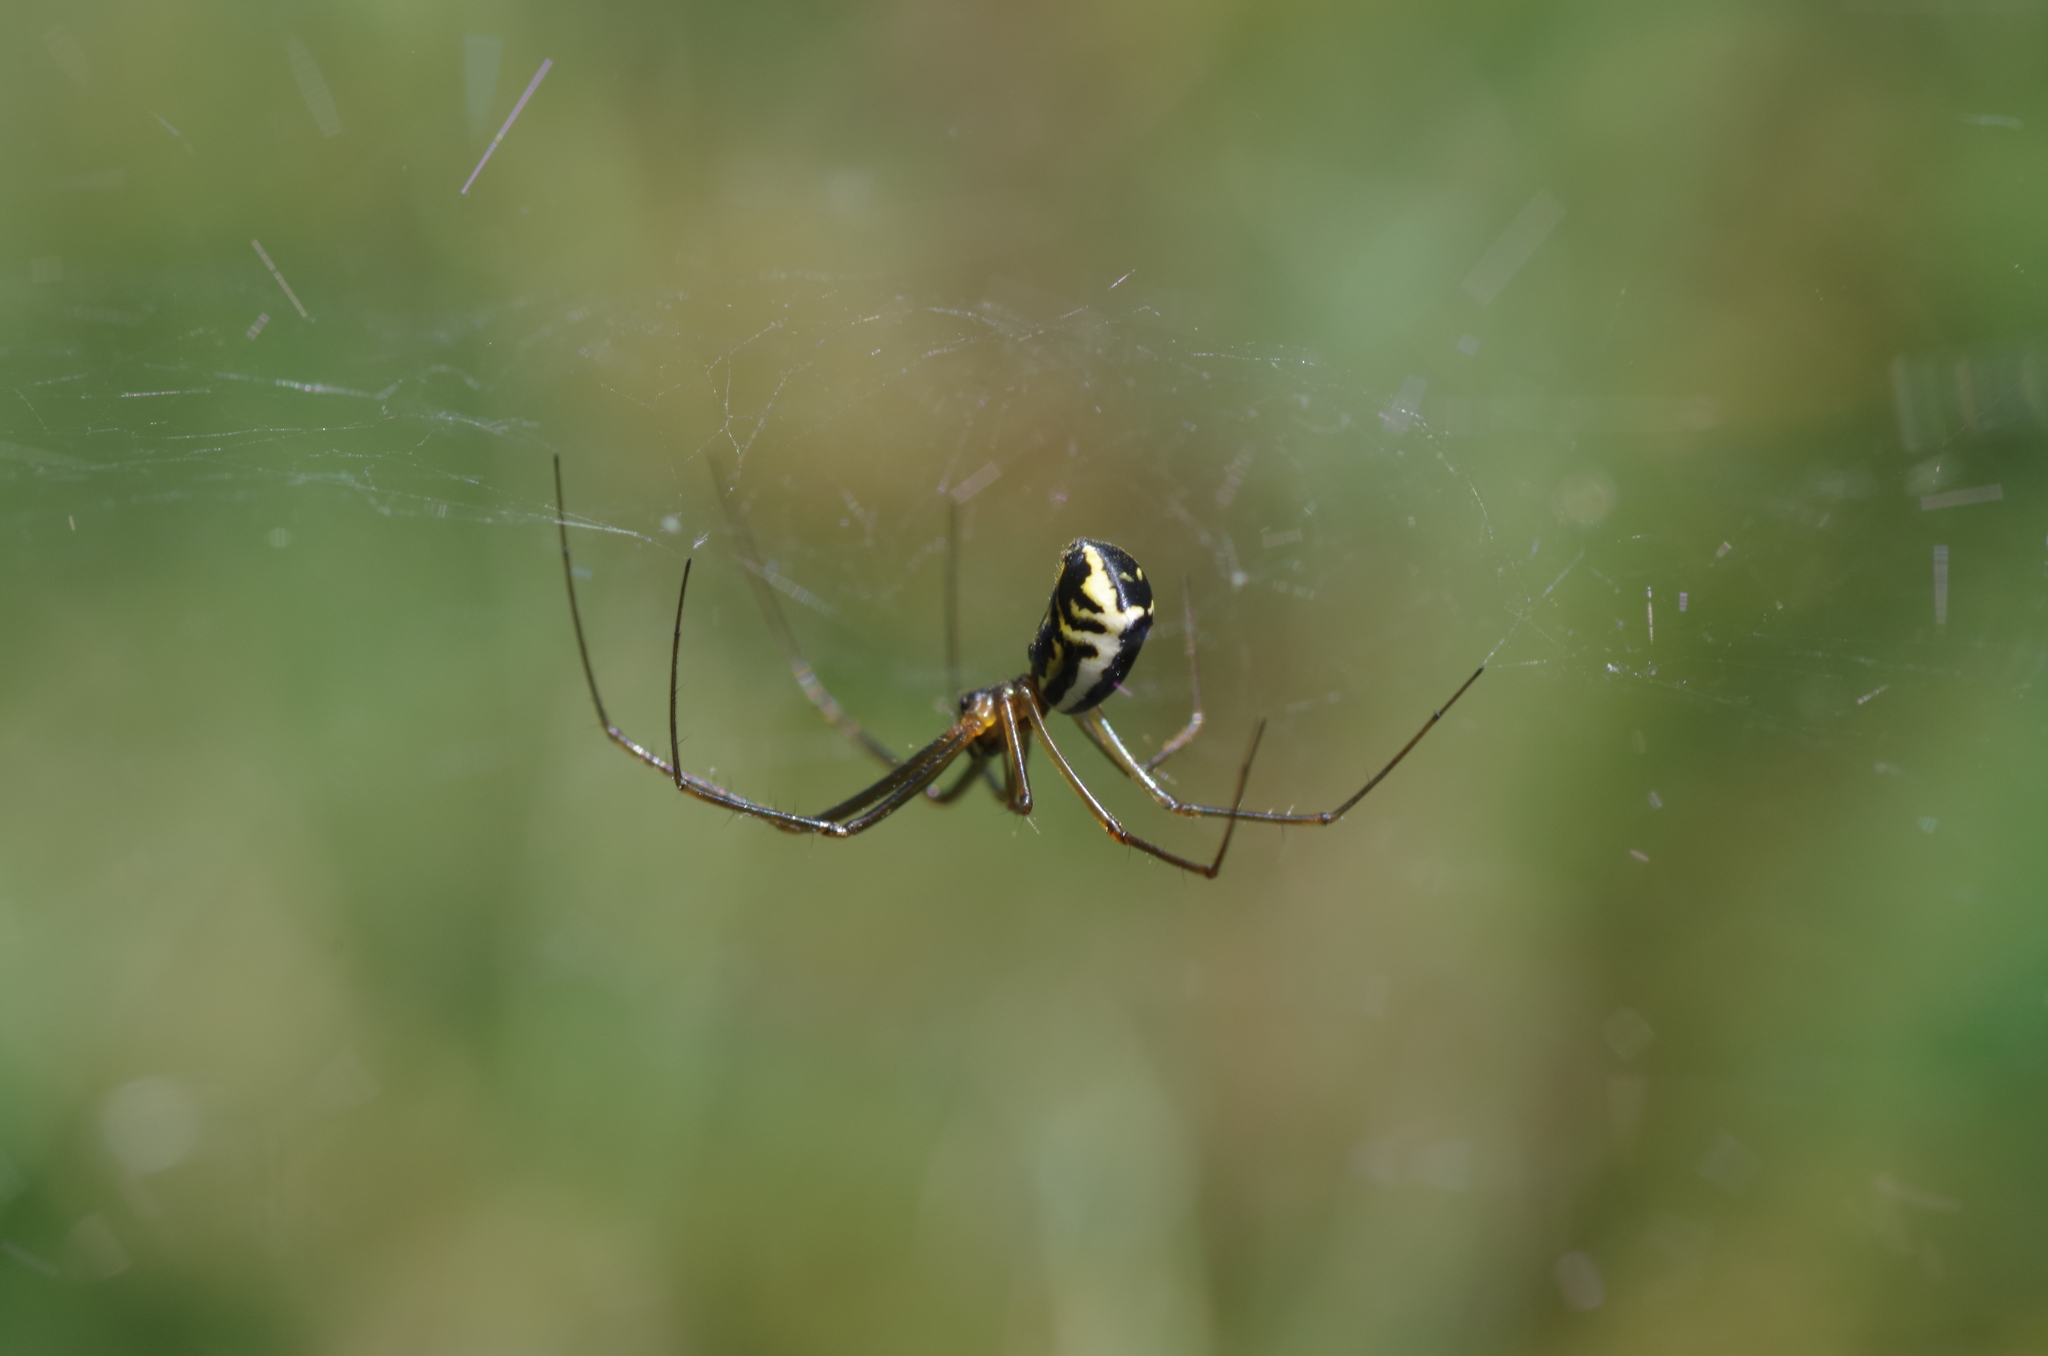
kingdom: Animalia
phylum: Arthropoda
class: Arachnida
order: Araneae
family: Linyphiidae
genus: Neriene
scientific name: Neriene radiata
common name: Filmy dome spider
